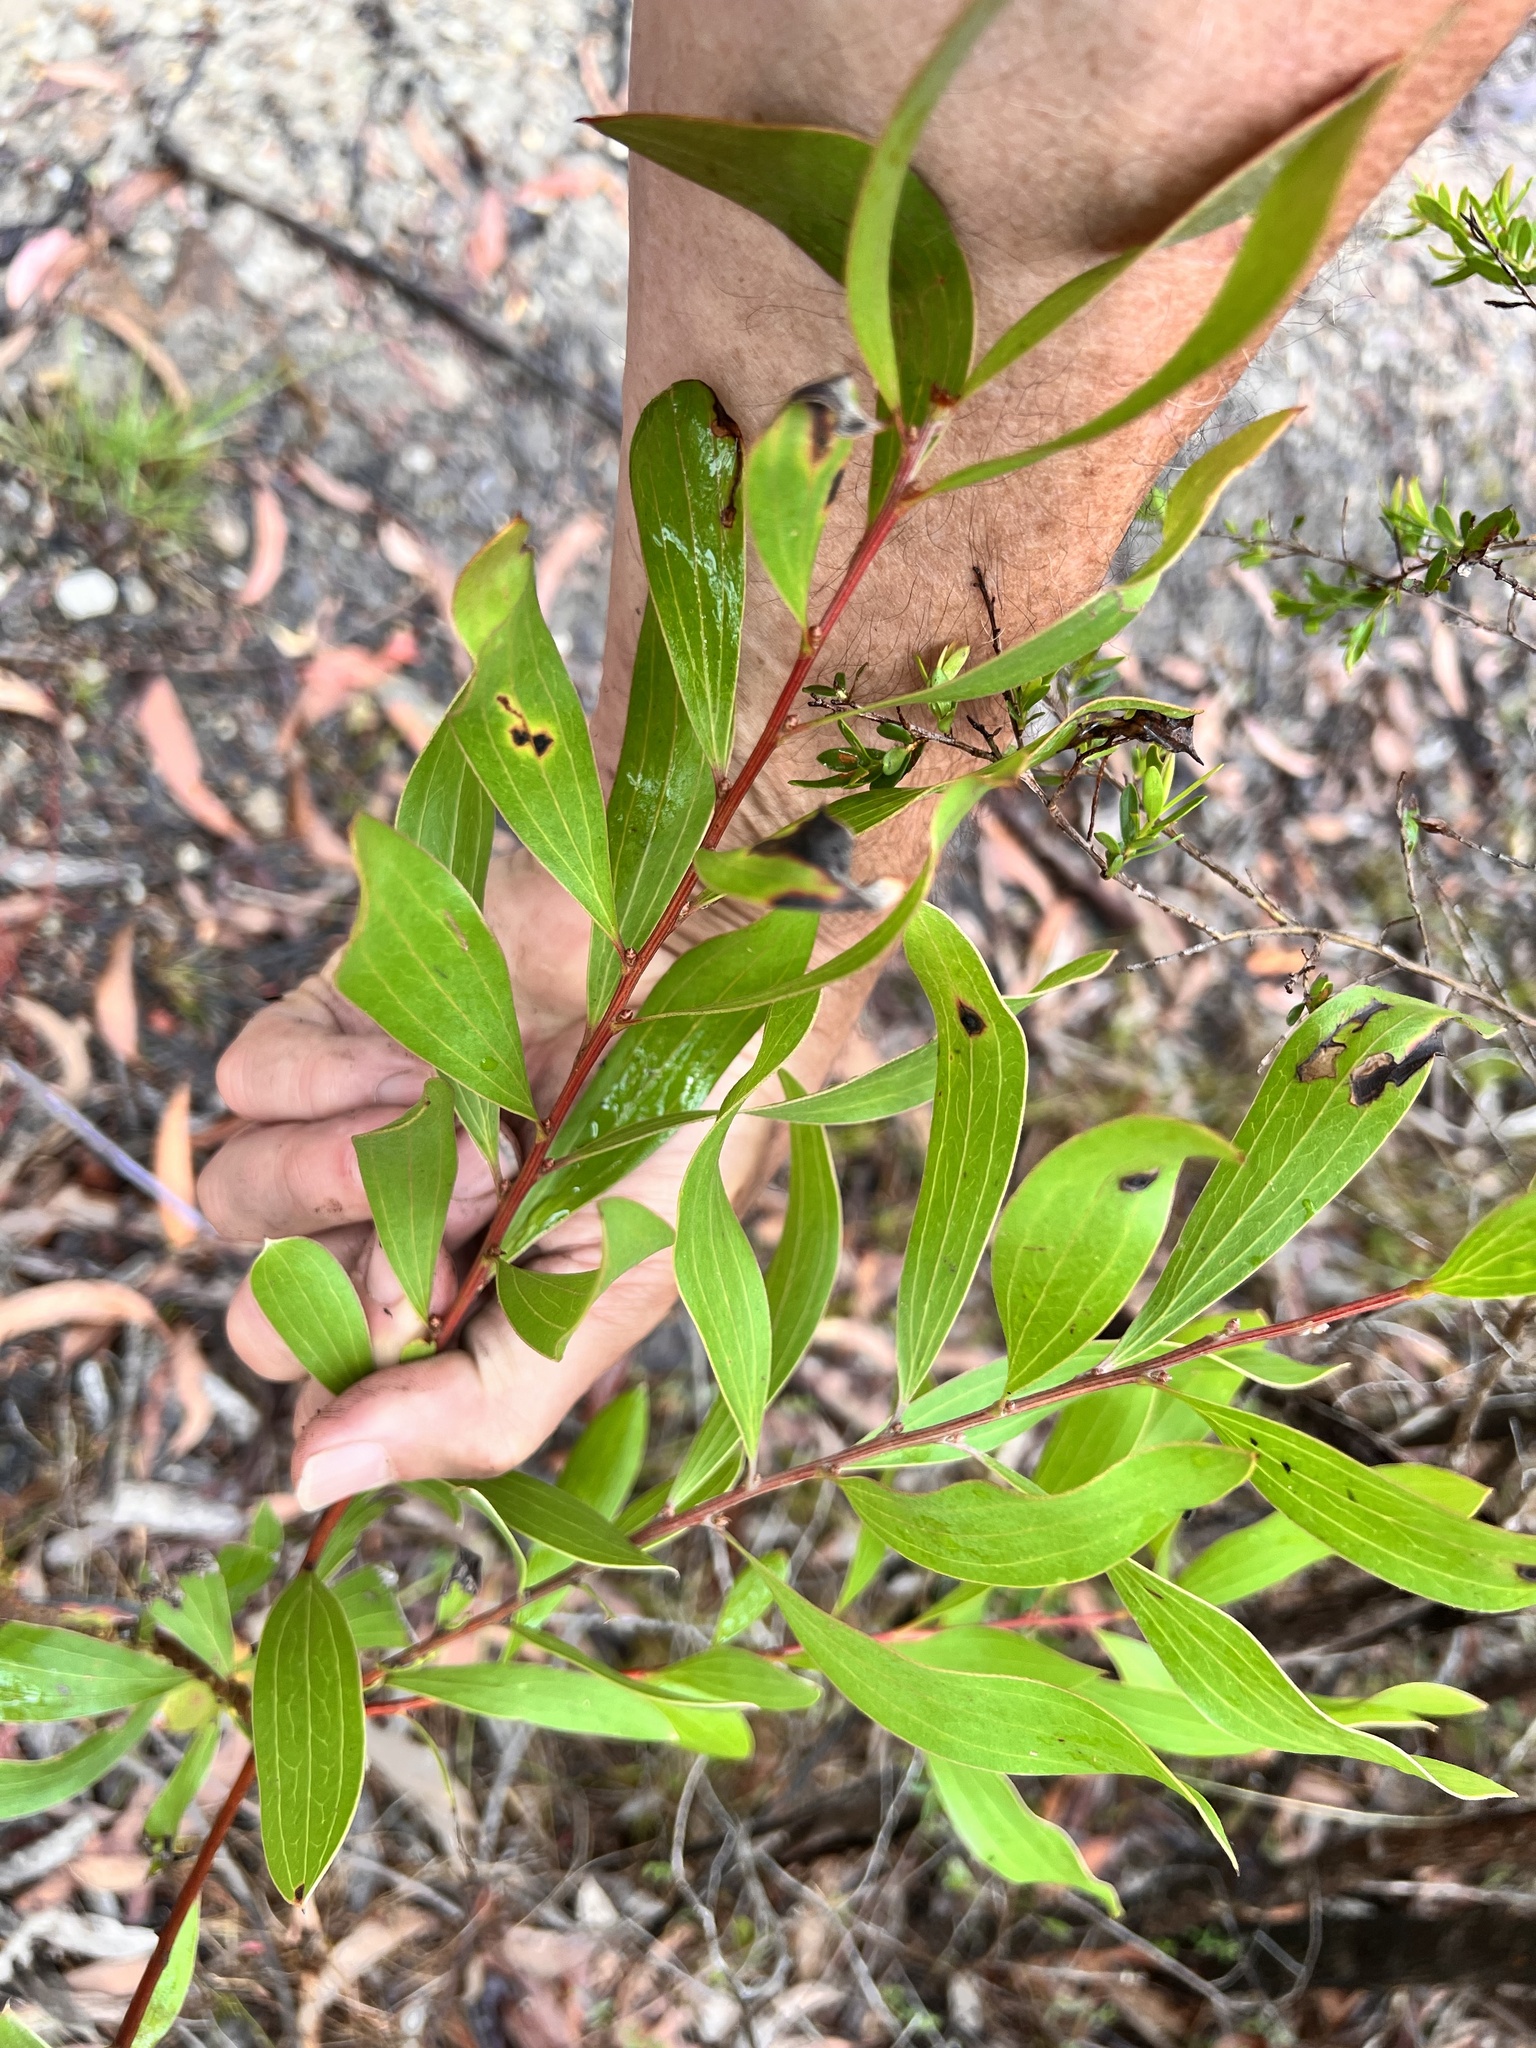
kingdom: Plantae
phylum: Tracheophyta
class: Magnoliopsida
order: Proteales
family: Proteaceae
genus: Hakea
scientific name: Hakea dactyloides
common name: Finger hakea
